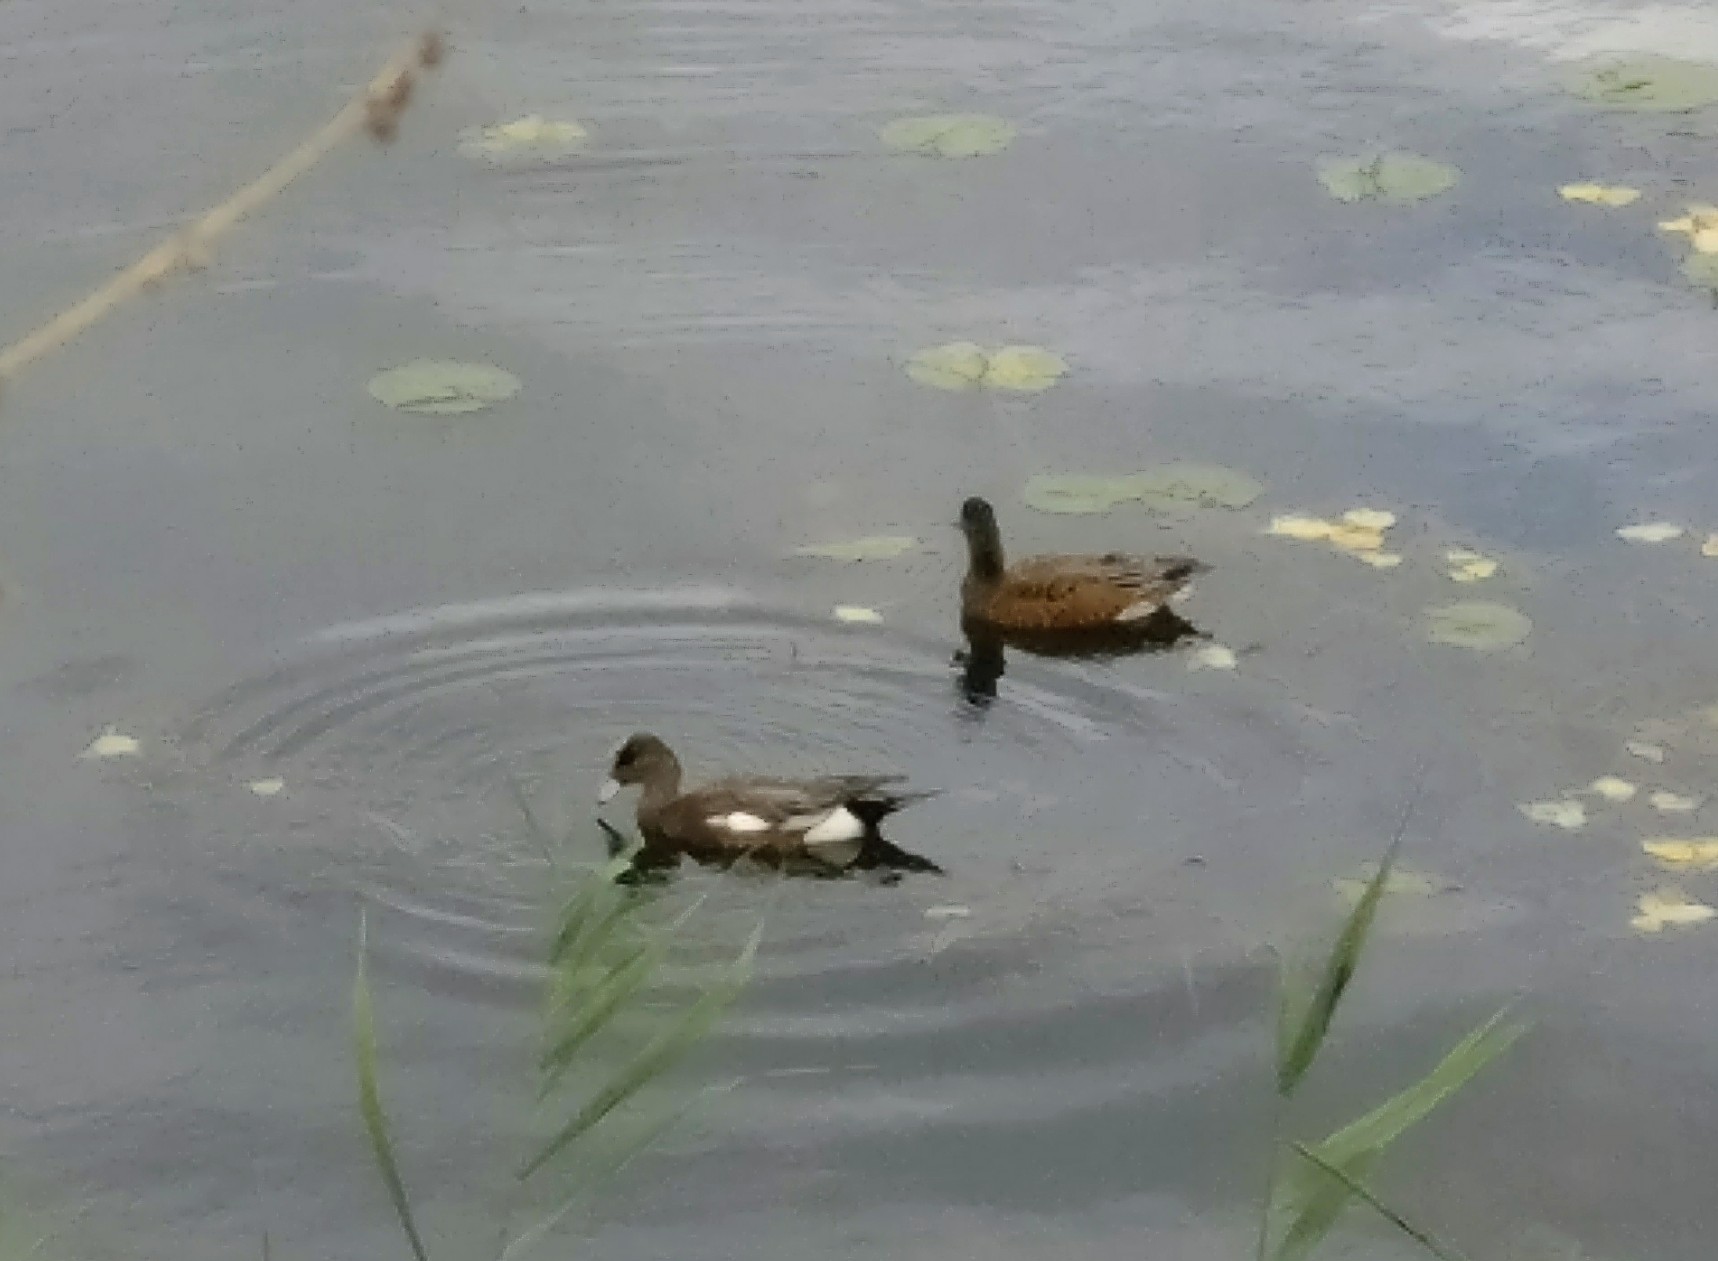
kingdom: Animalia
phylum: Chordata
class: Aves
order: Anseriformes
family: Anatidae
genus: Mareca
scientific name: Mareca americana
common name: American wigeon
